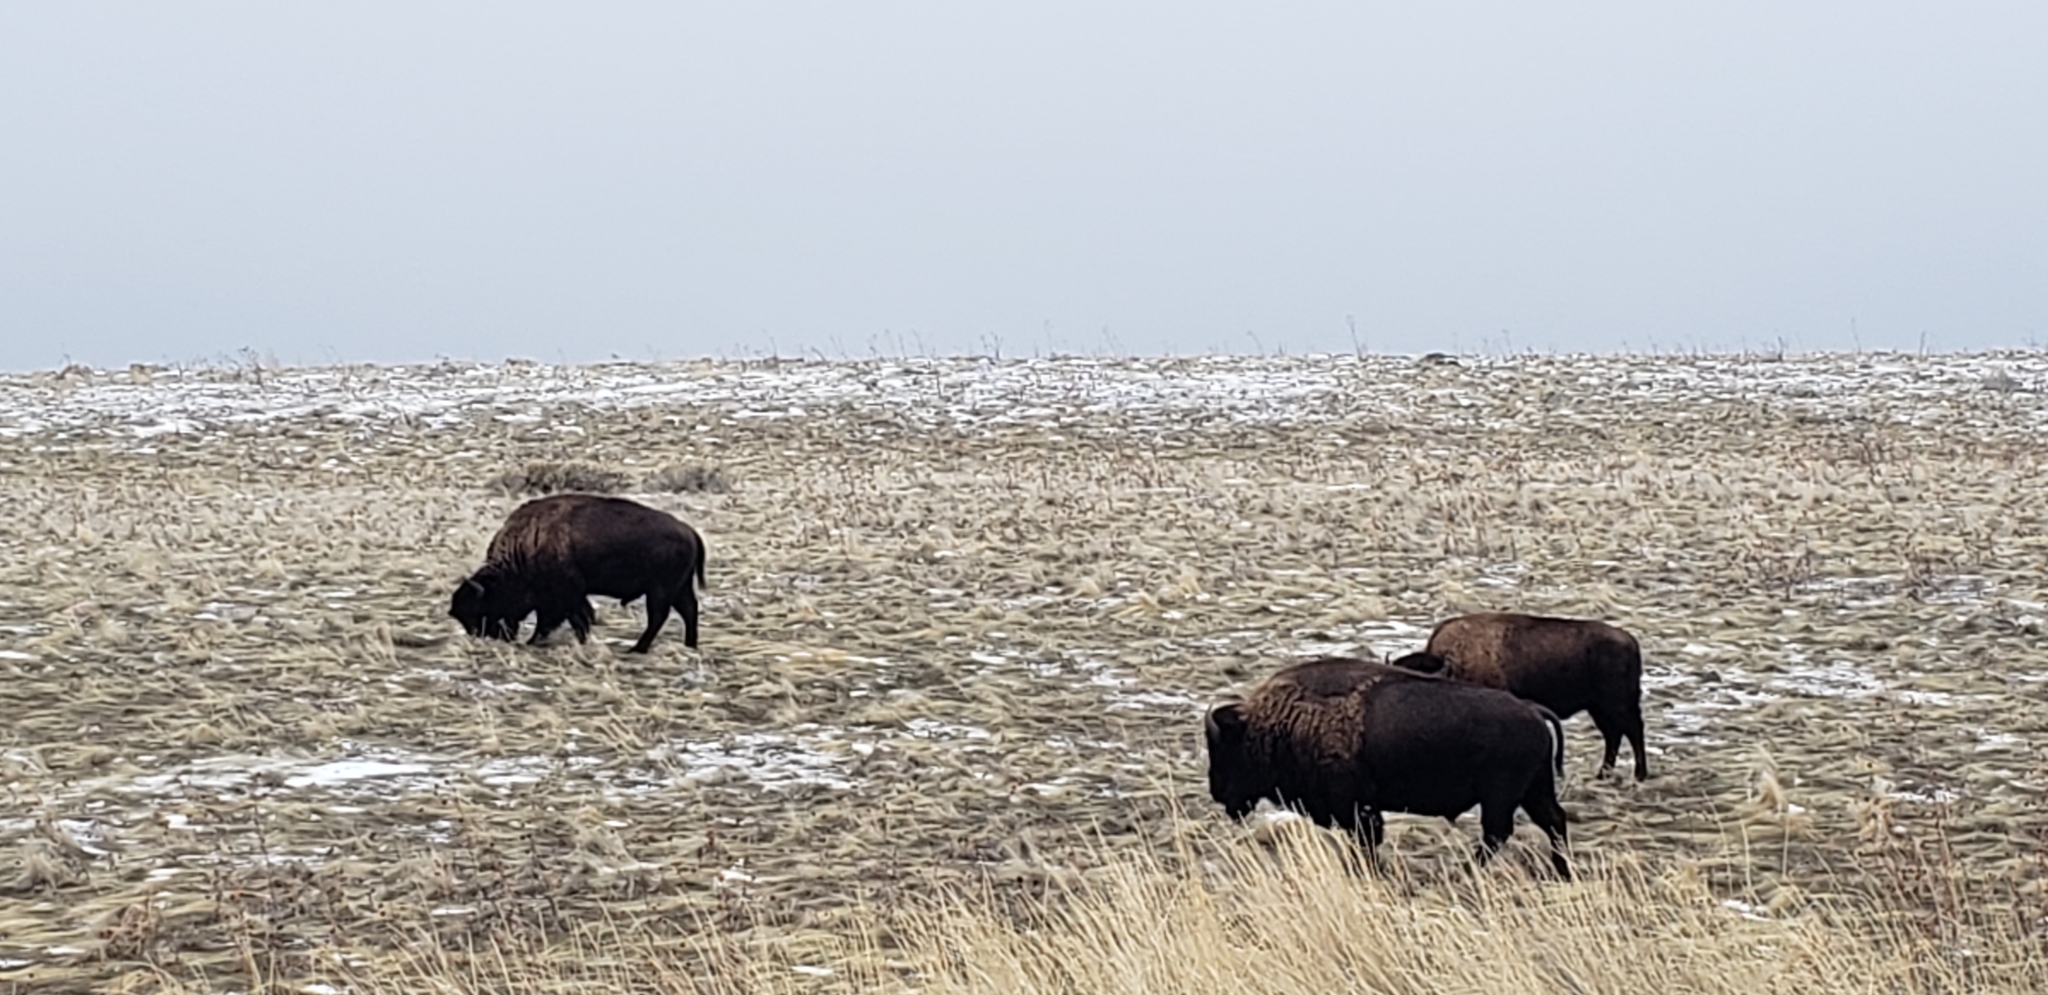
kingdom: Animalia
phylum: Chordata
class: Mammalia
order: Artiodactyla
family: Bovidae
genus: Bison
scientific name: Bison bison
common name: American bison
